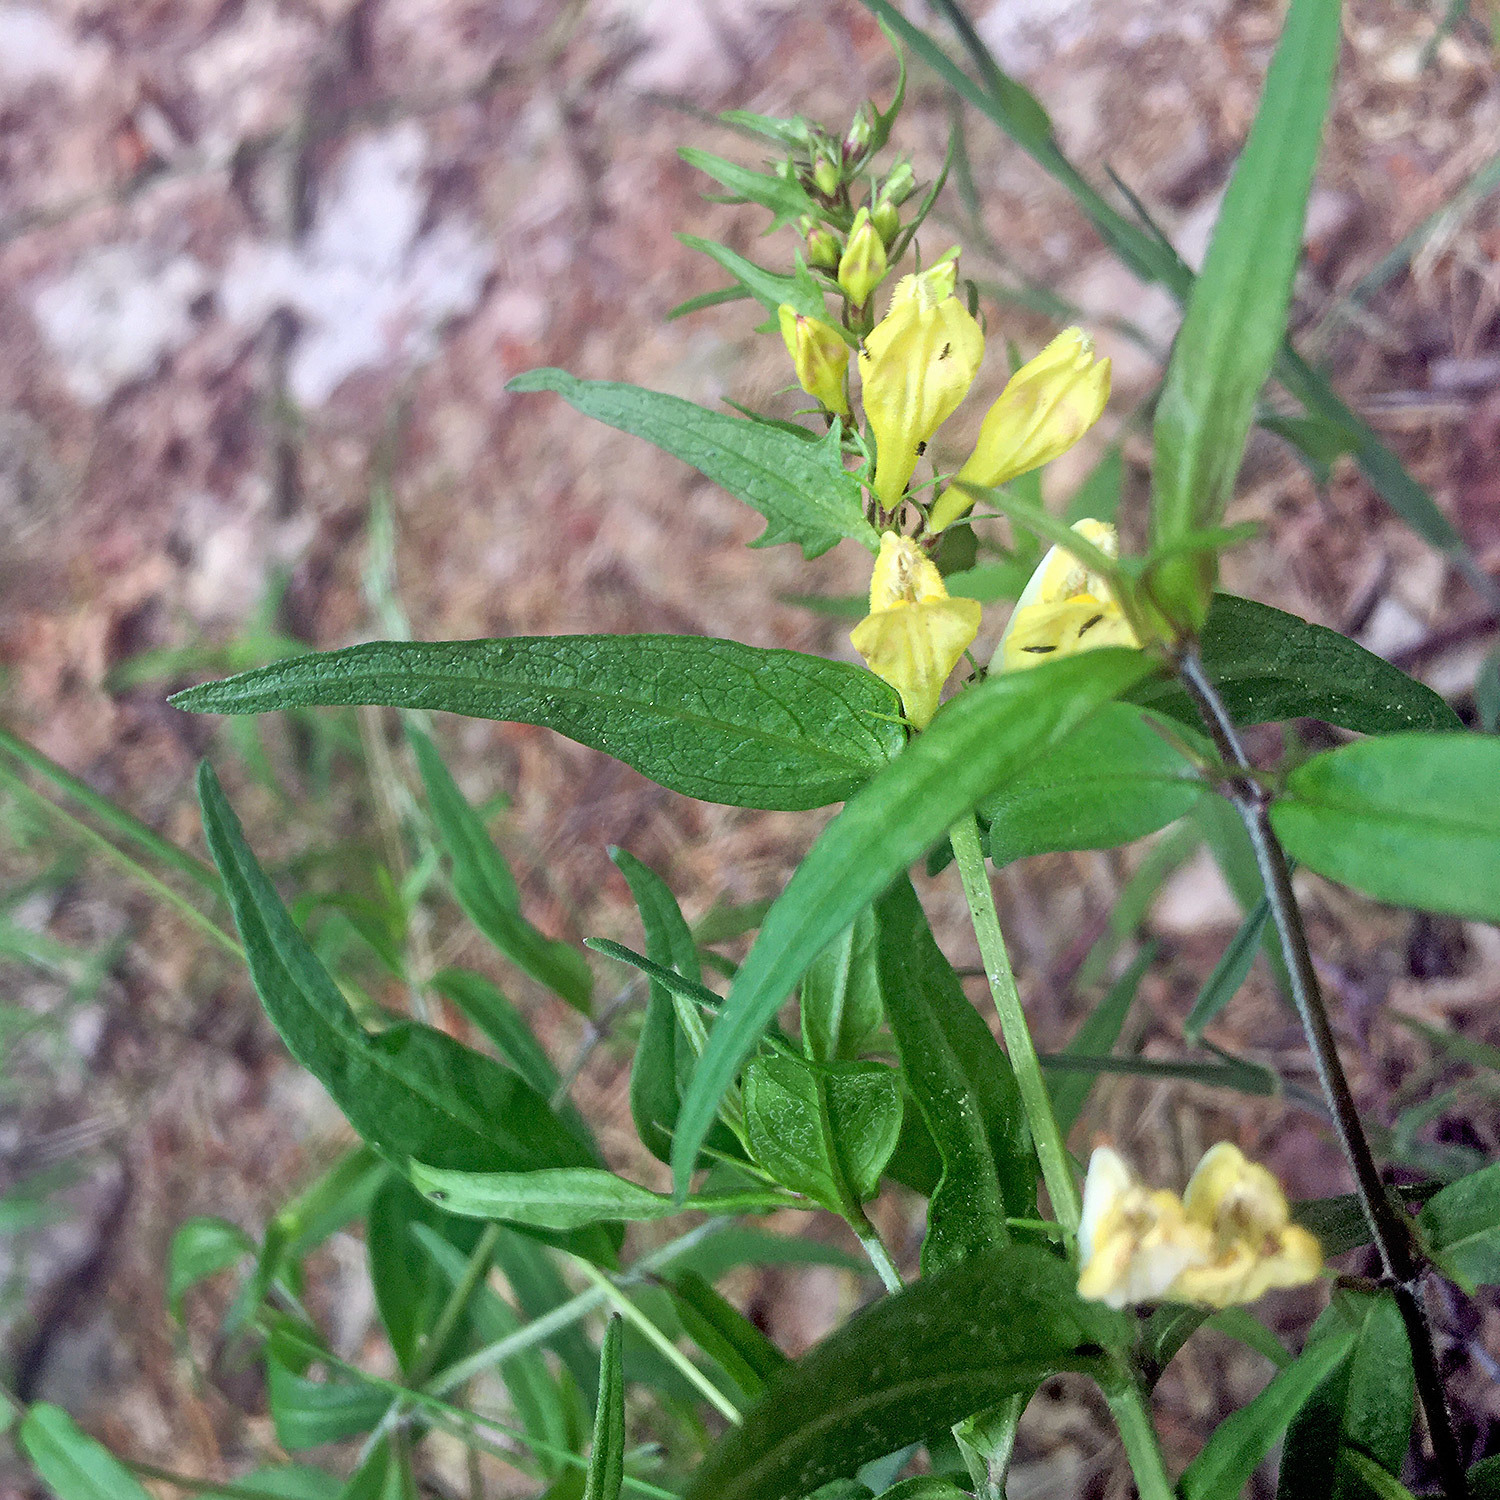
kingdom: Plantae
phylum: Tracheophyta
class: Magnoliopsida
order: Lamiales
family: Orobanchaceae
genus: Melampyrum
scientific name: Melampyrum pratense
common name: Common cow-wheat
